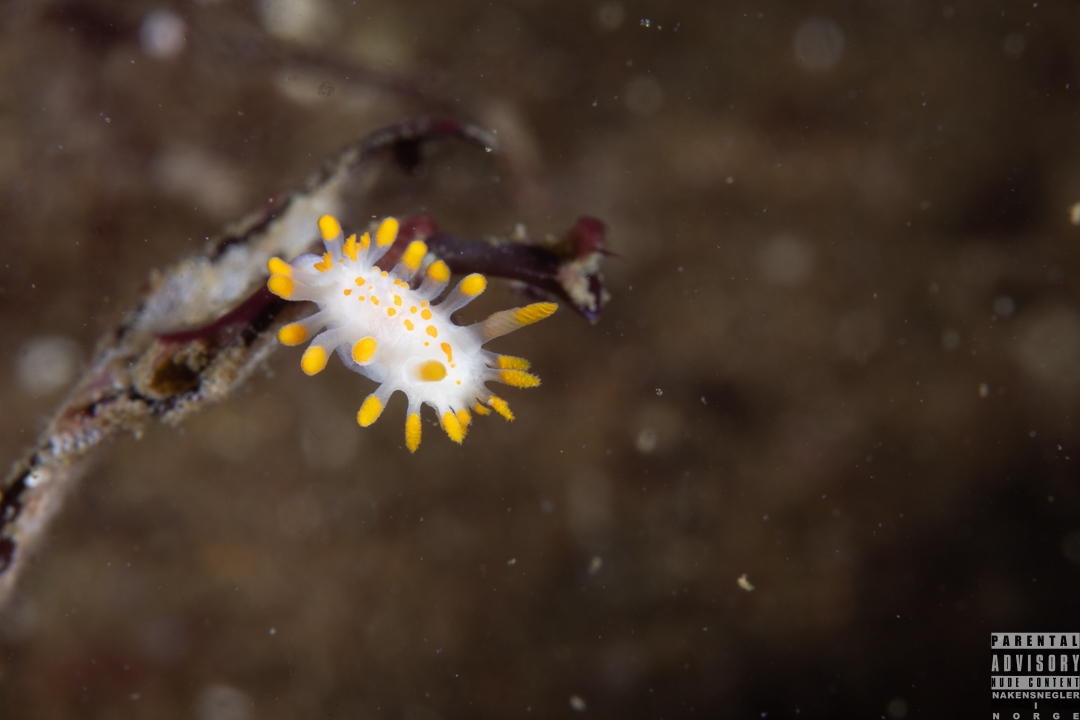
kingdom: Animalia
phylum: Mollusca
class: Gastropoda
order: Nudibranchia
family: Polyceridae
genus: Limacia
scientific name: Limacia clavigera
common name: Orange-clubbed sea slug
